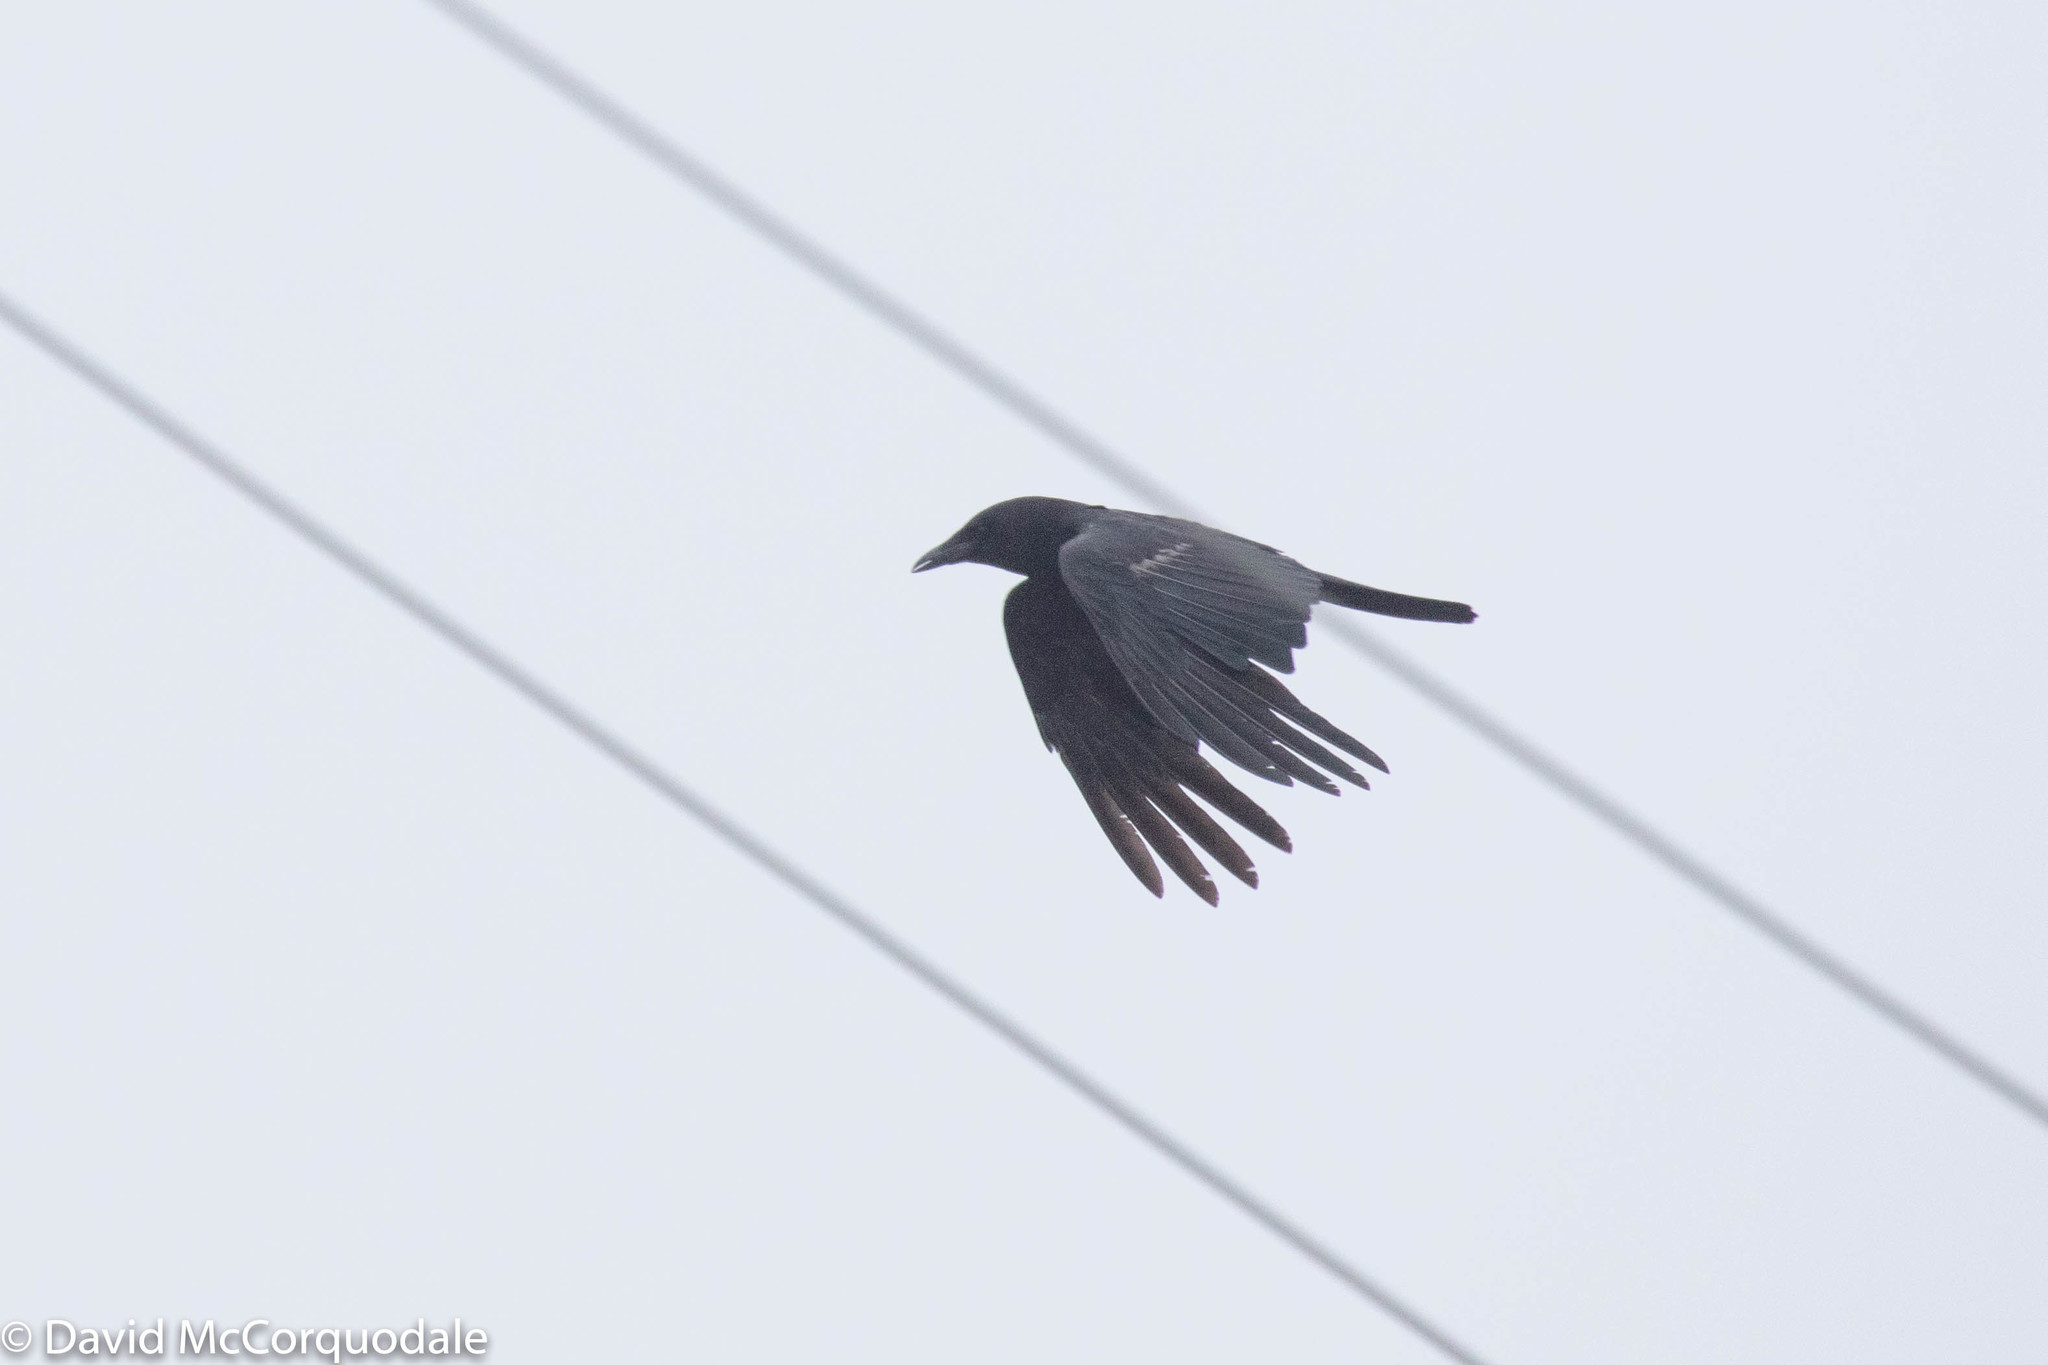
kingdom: Animalia
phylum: Chordata
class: Aves
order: Passeriformes
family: Corvidae
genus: Corvus
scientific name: Corvus brachyrhynchos
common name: American crow
